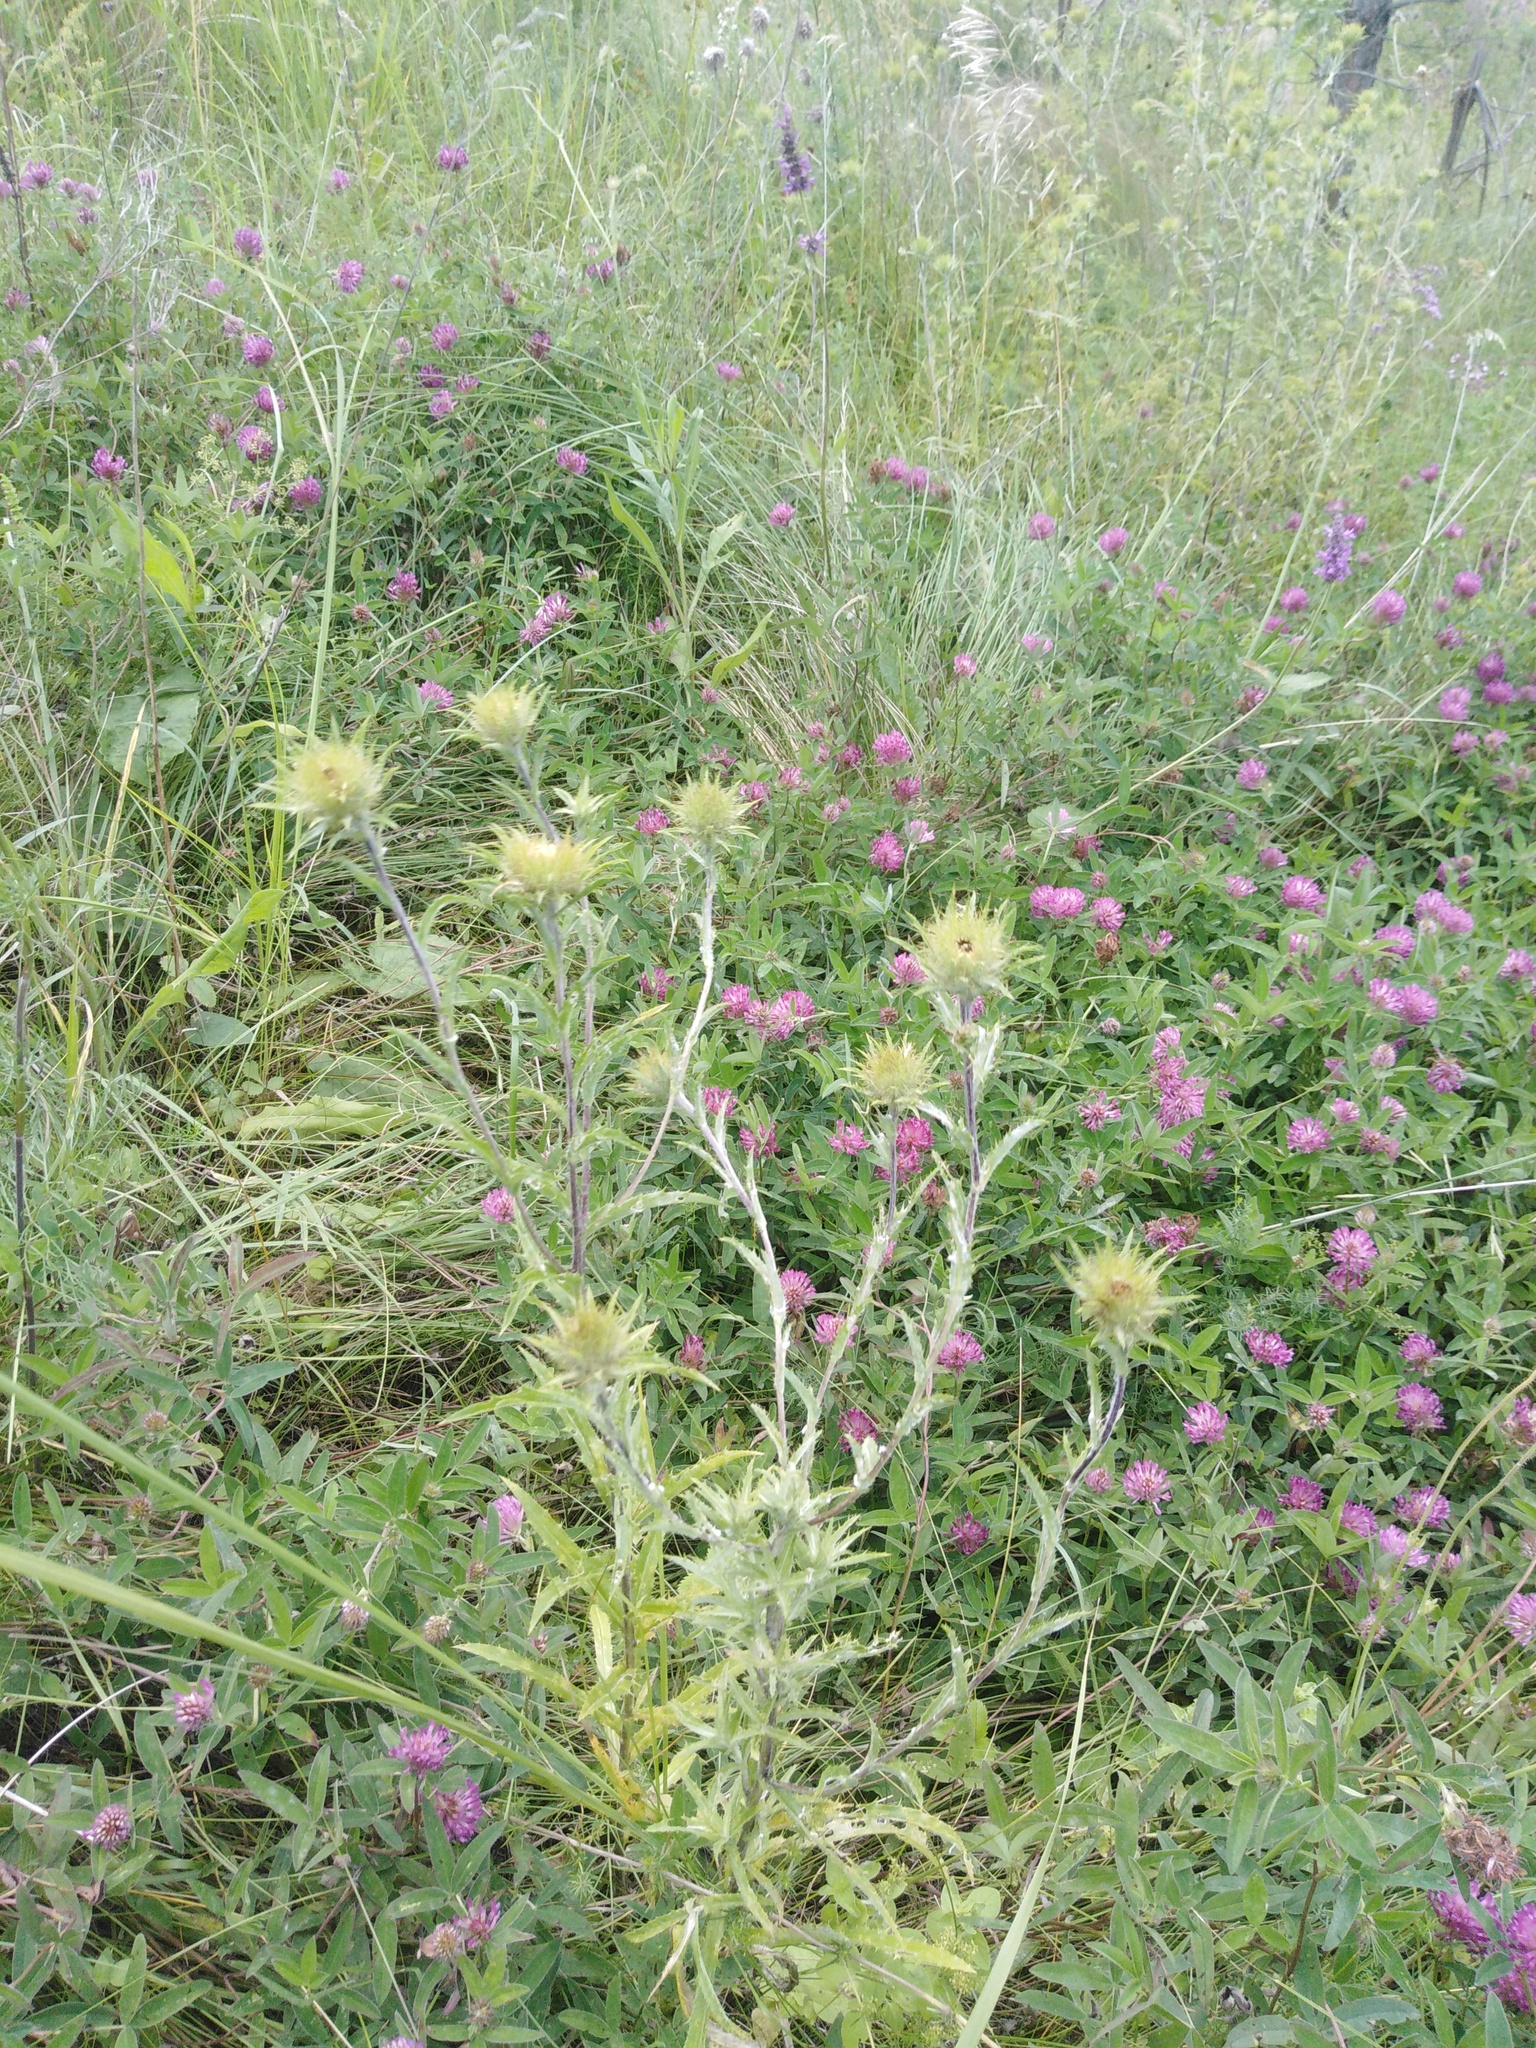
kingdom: Plantae
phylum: Tracheophyta
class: Magnoliopsida
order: Asterales
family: Asteraceae
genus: Carlina
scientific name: Carlina biebersteinii
